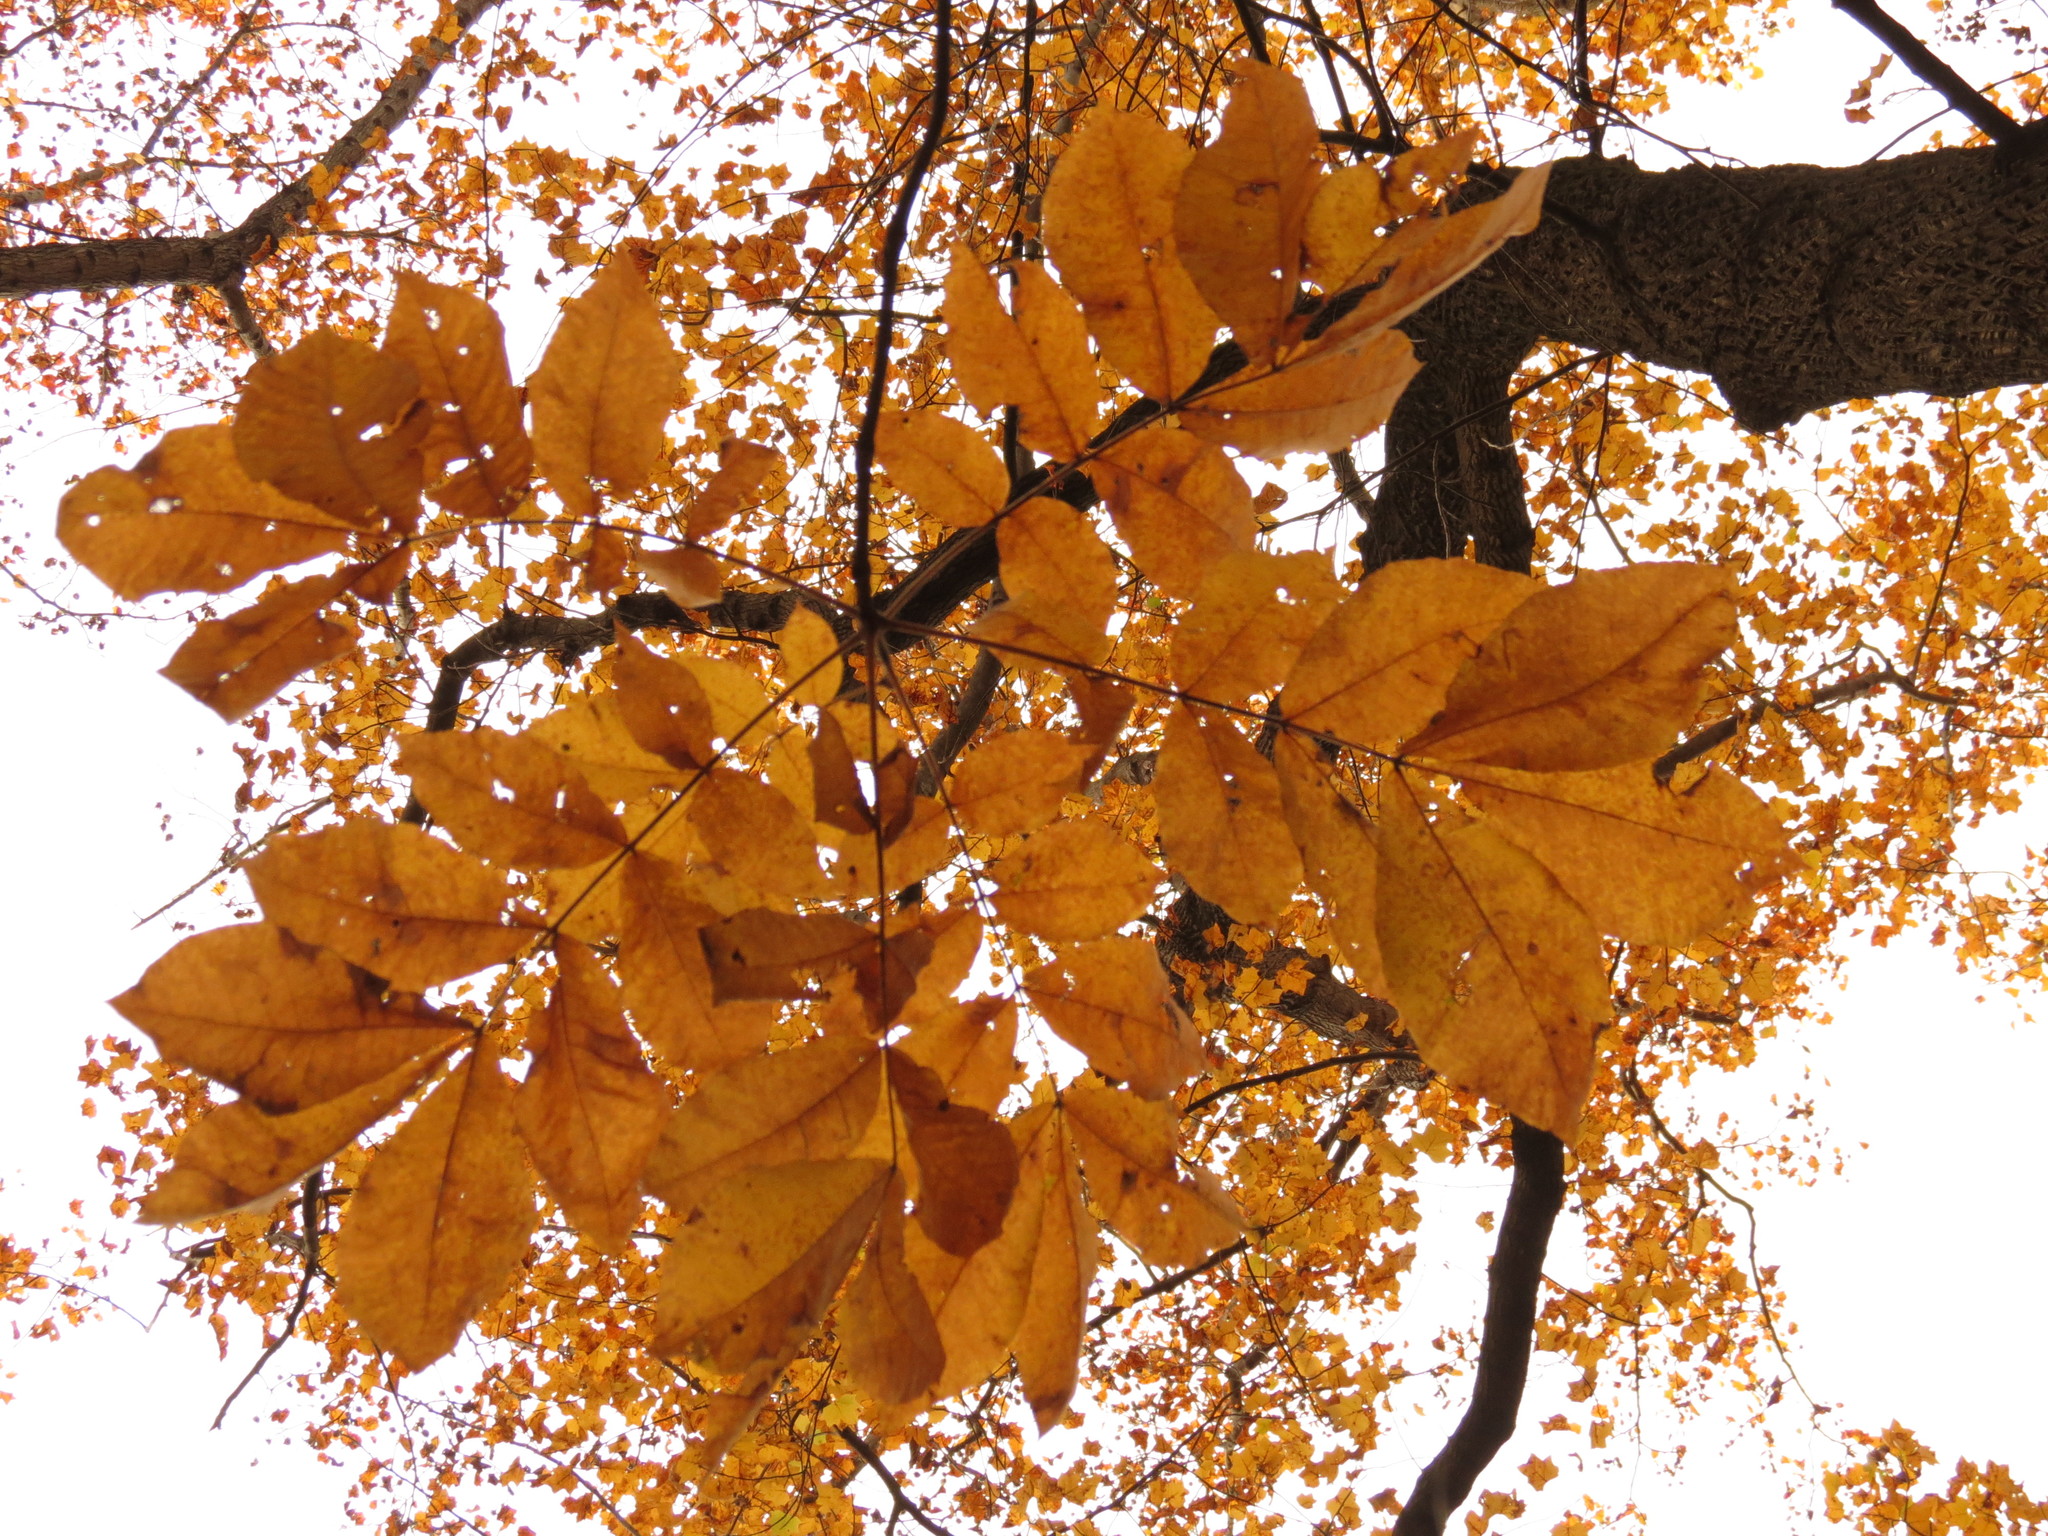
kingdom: Plantae
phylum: Tracheophyta
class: Magnoliopsida
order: Fagales
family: Juglandaceae
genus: Carya
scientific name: Carya alba
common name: Mockernut hickory
